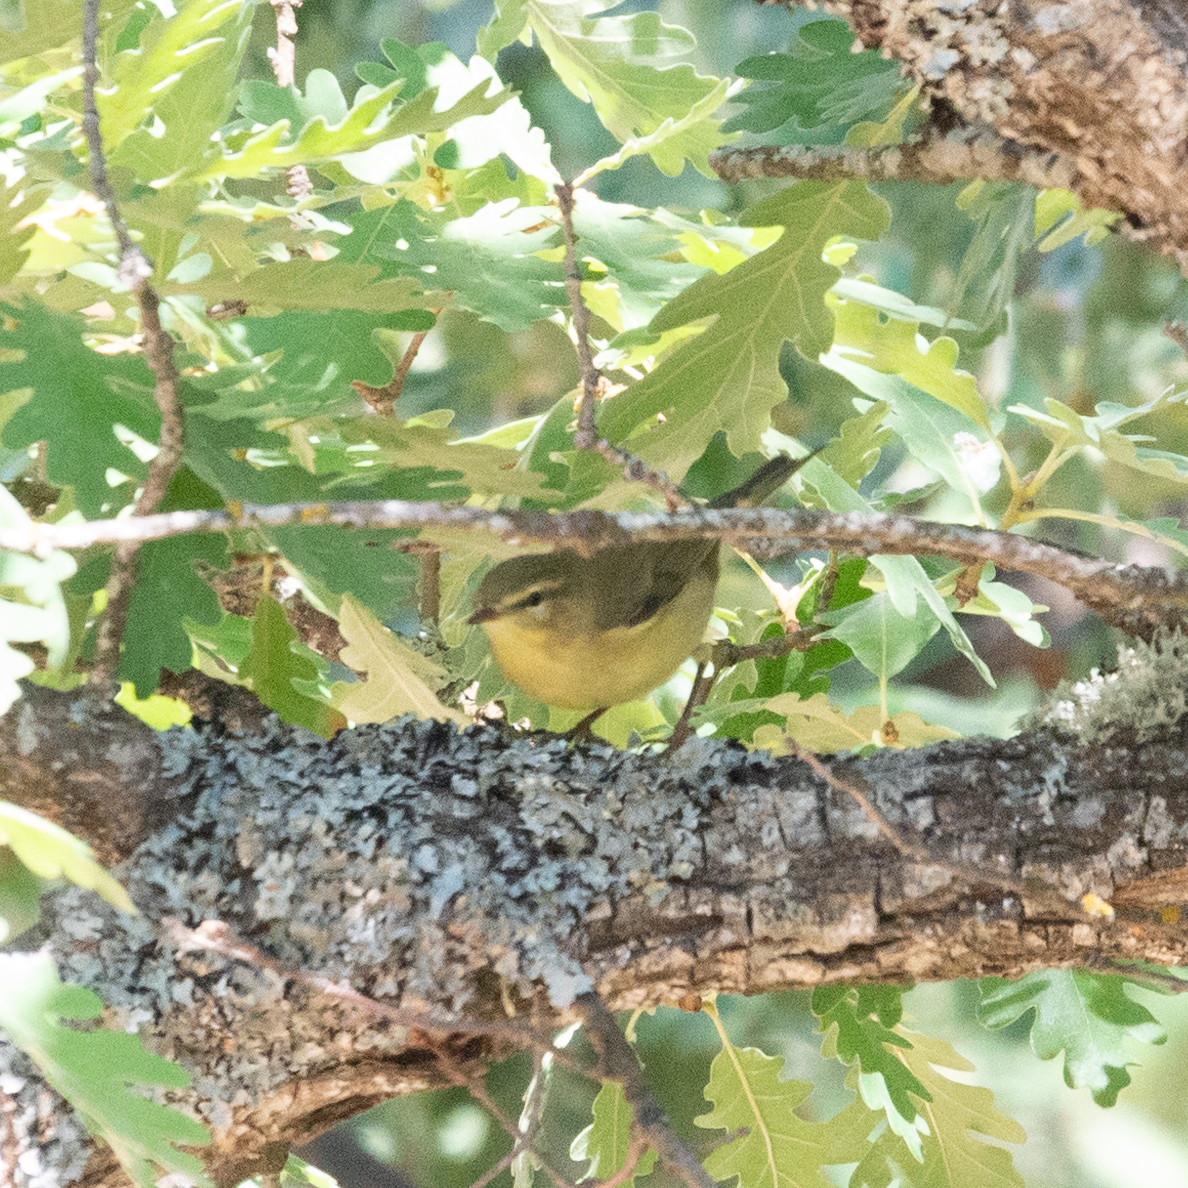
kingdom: Animalia
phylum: Chordata
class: Aves
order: Passeriformes
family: Phylloscopidae
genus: Phylloscopus
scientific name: Phylloscopus trochilus
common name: Willow warbler
